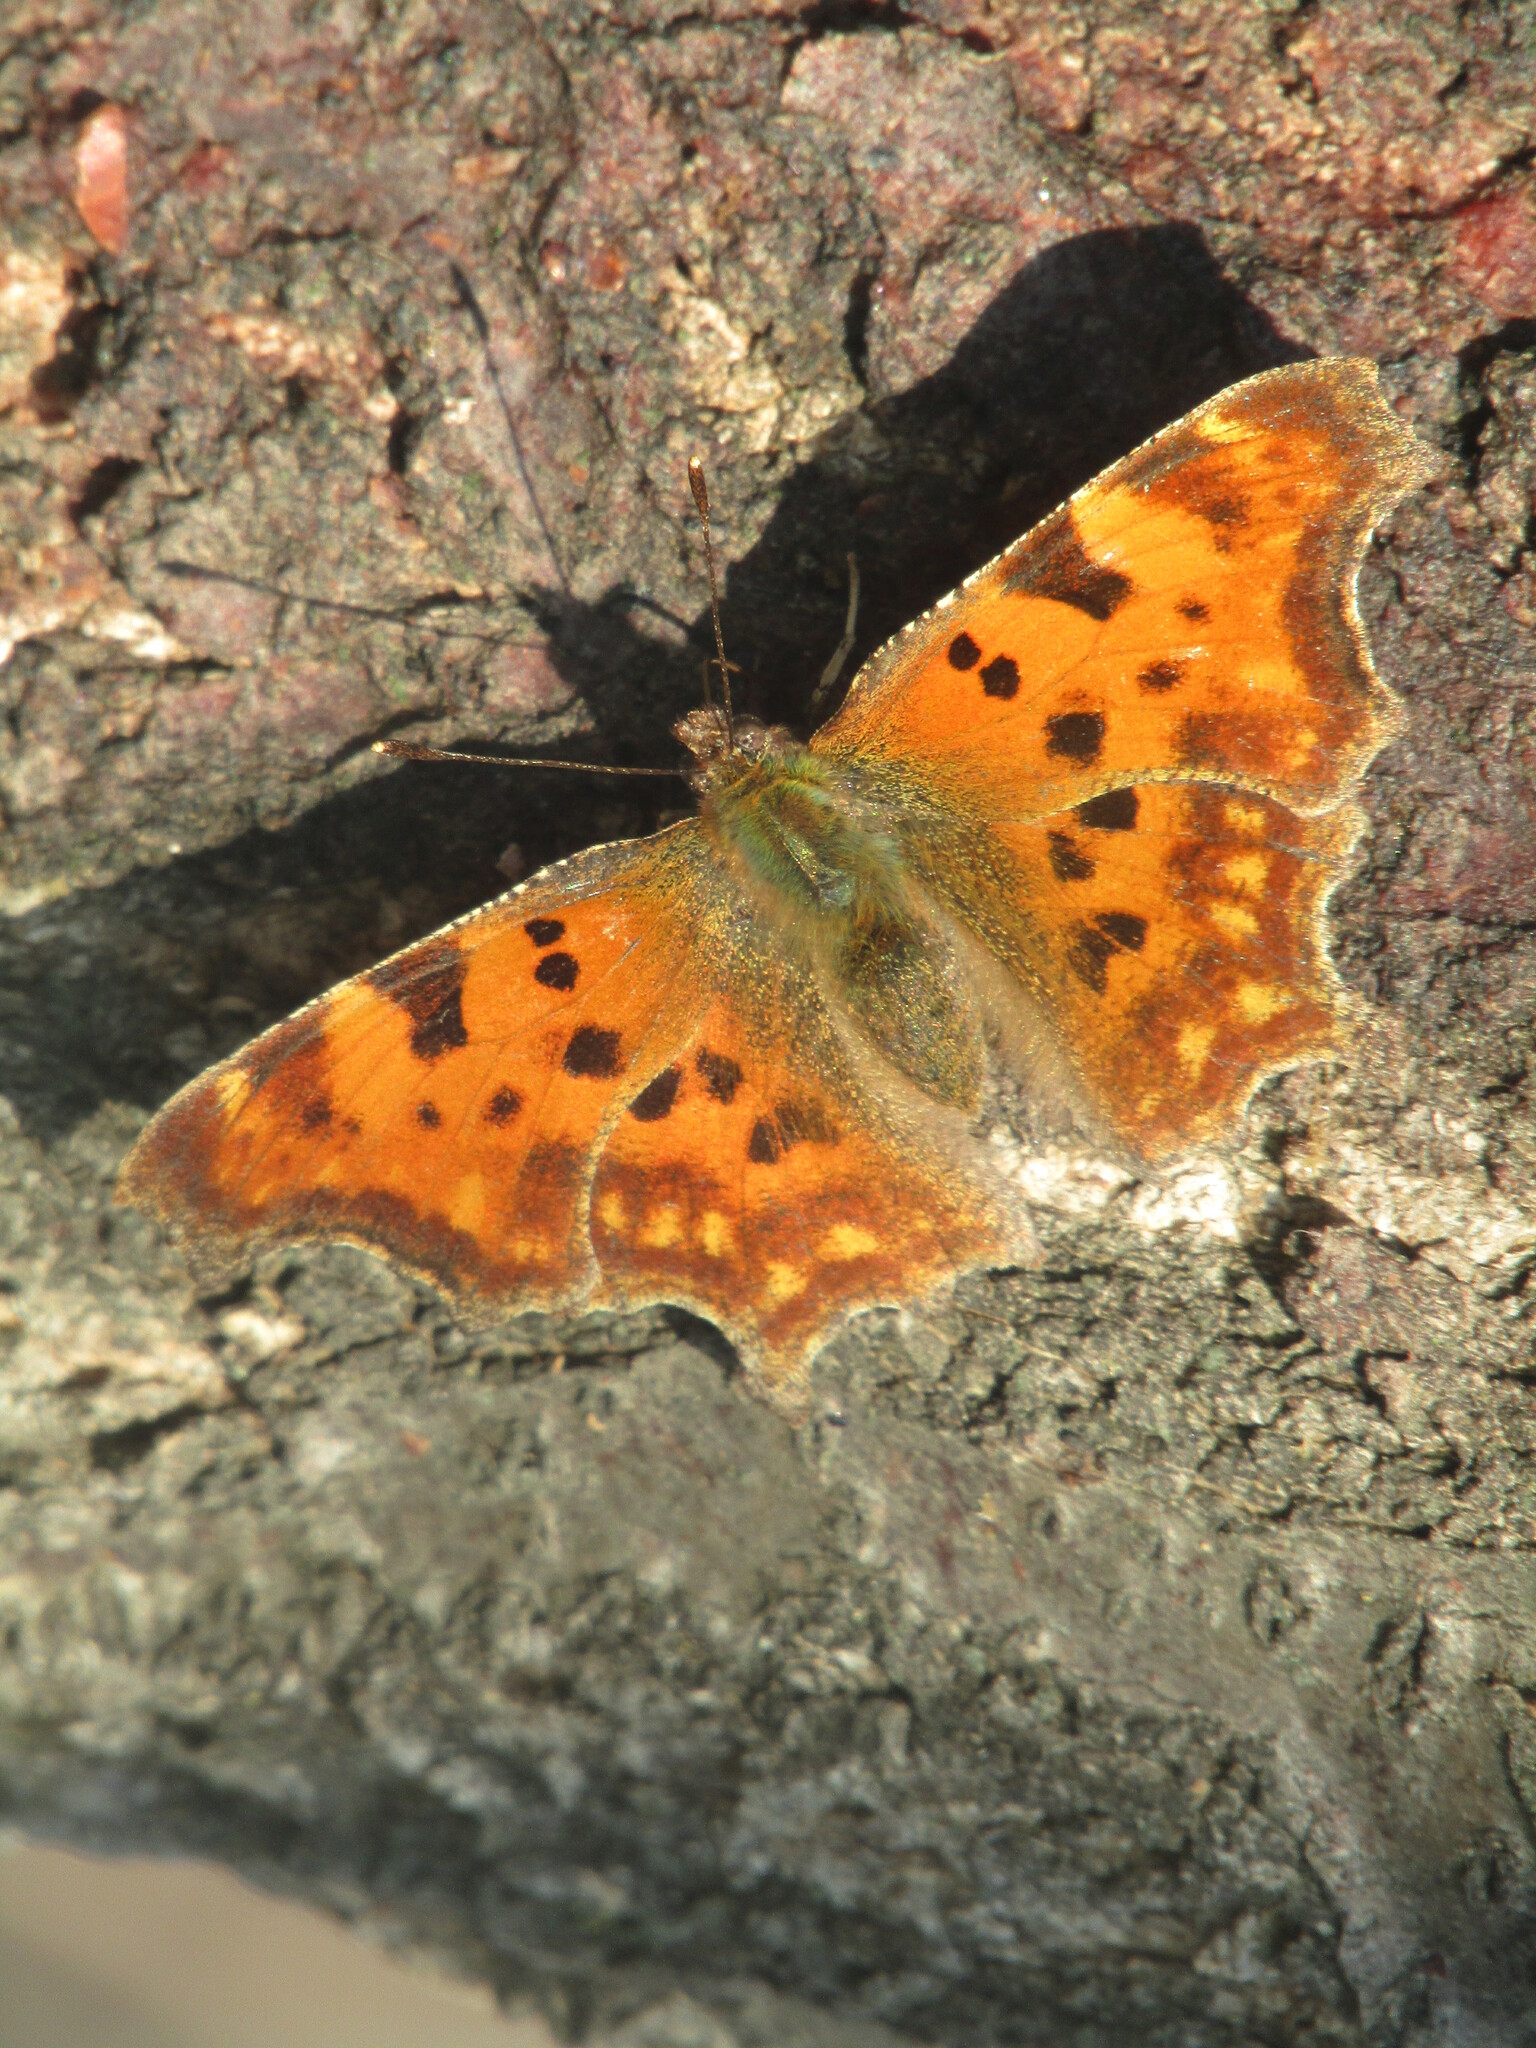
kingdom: Animalia
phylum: Arthropoda
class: Insecta
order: Lepidoptera
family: Nymphalidae
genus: Polygonia
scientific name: Polygonia c-album
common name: Comma
